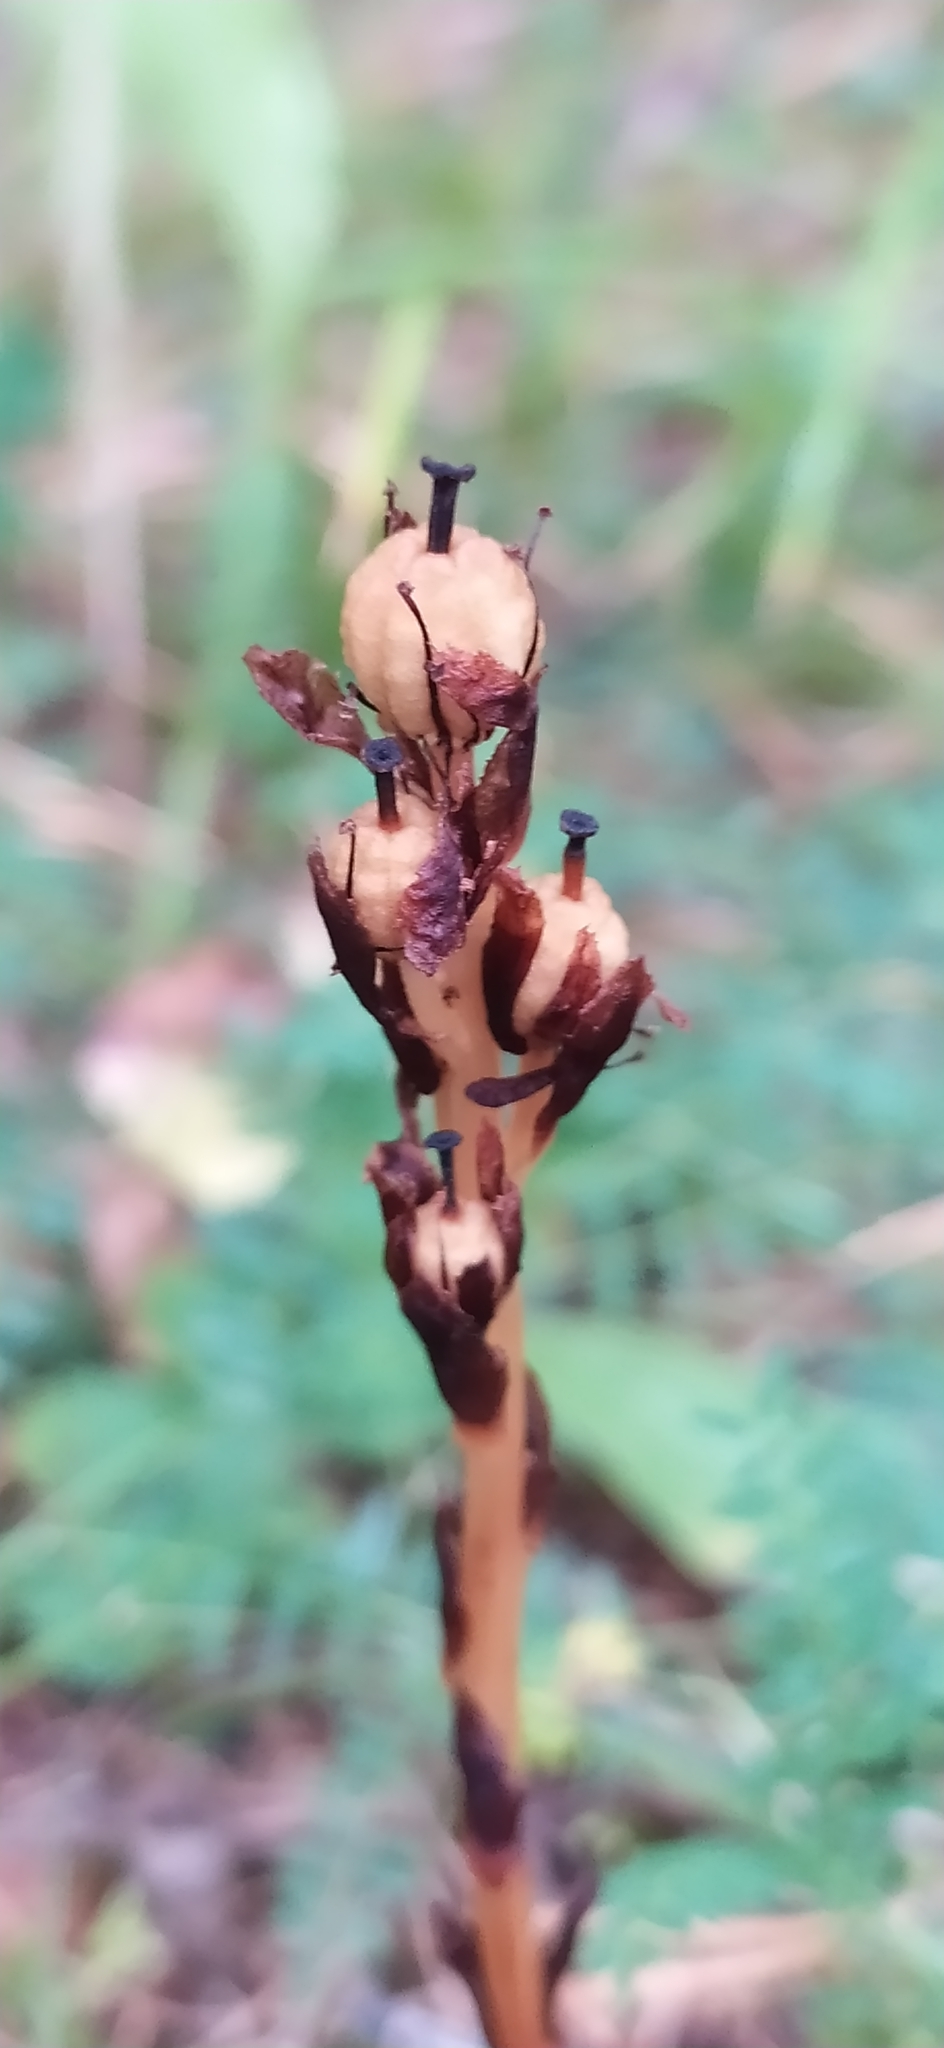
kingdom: Plantae
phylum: Tracheophyta
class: Magnoliopsida
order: Ericales
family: Ericaceae
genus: Hypopitys
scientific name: Hypopitys monotropa
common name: Yellow bird's-nest
